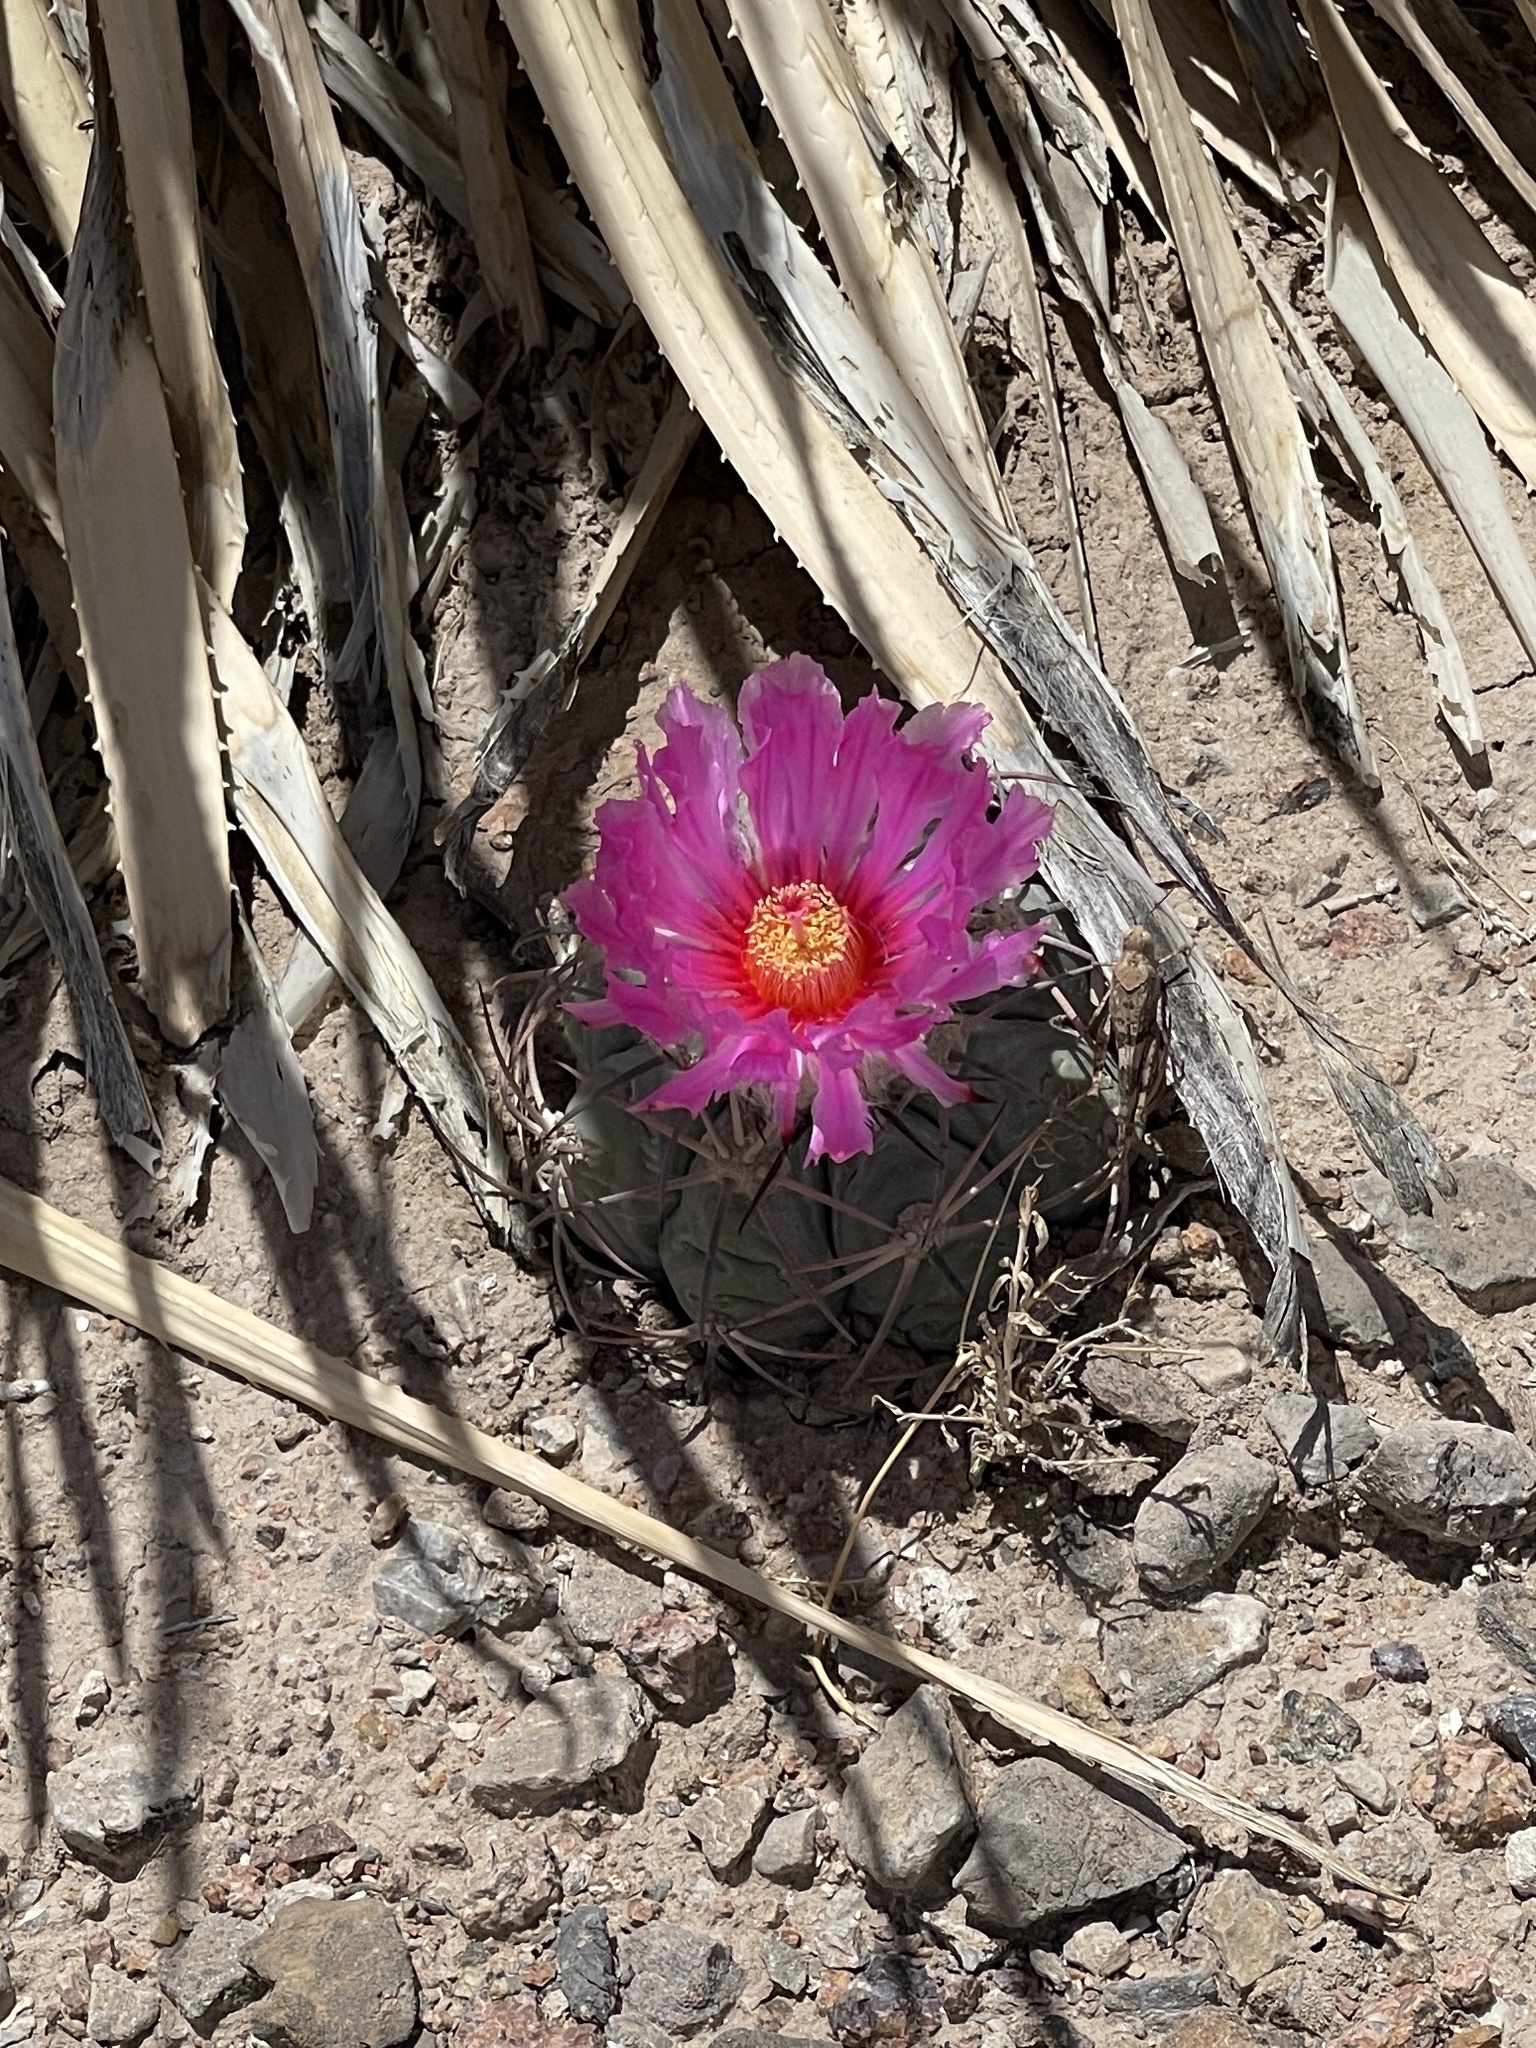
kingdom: Plantae
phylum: Tracheophyta
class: Magnoliopsida
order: Caryophyllales
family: Cactaceae
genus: Echinocactus
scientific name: Echinocactus horizonthalonius
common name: Devilshead
